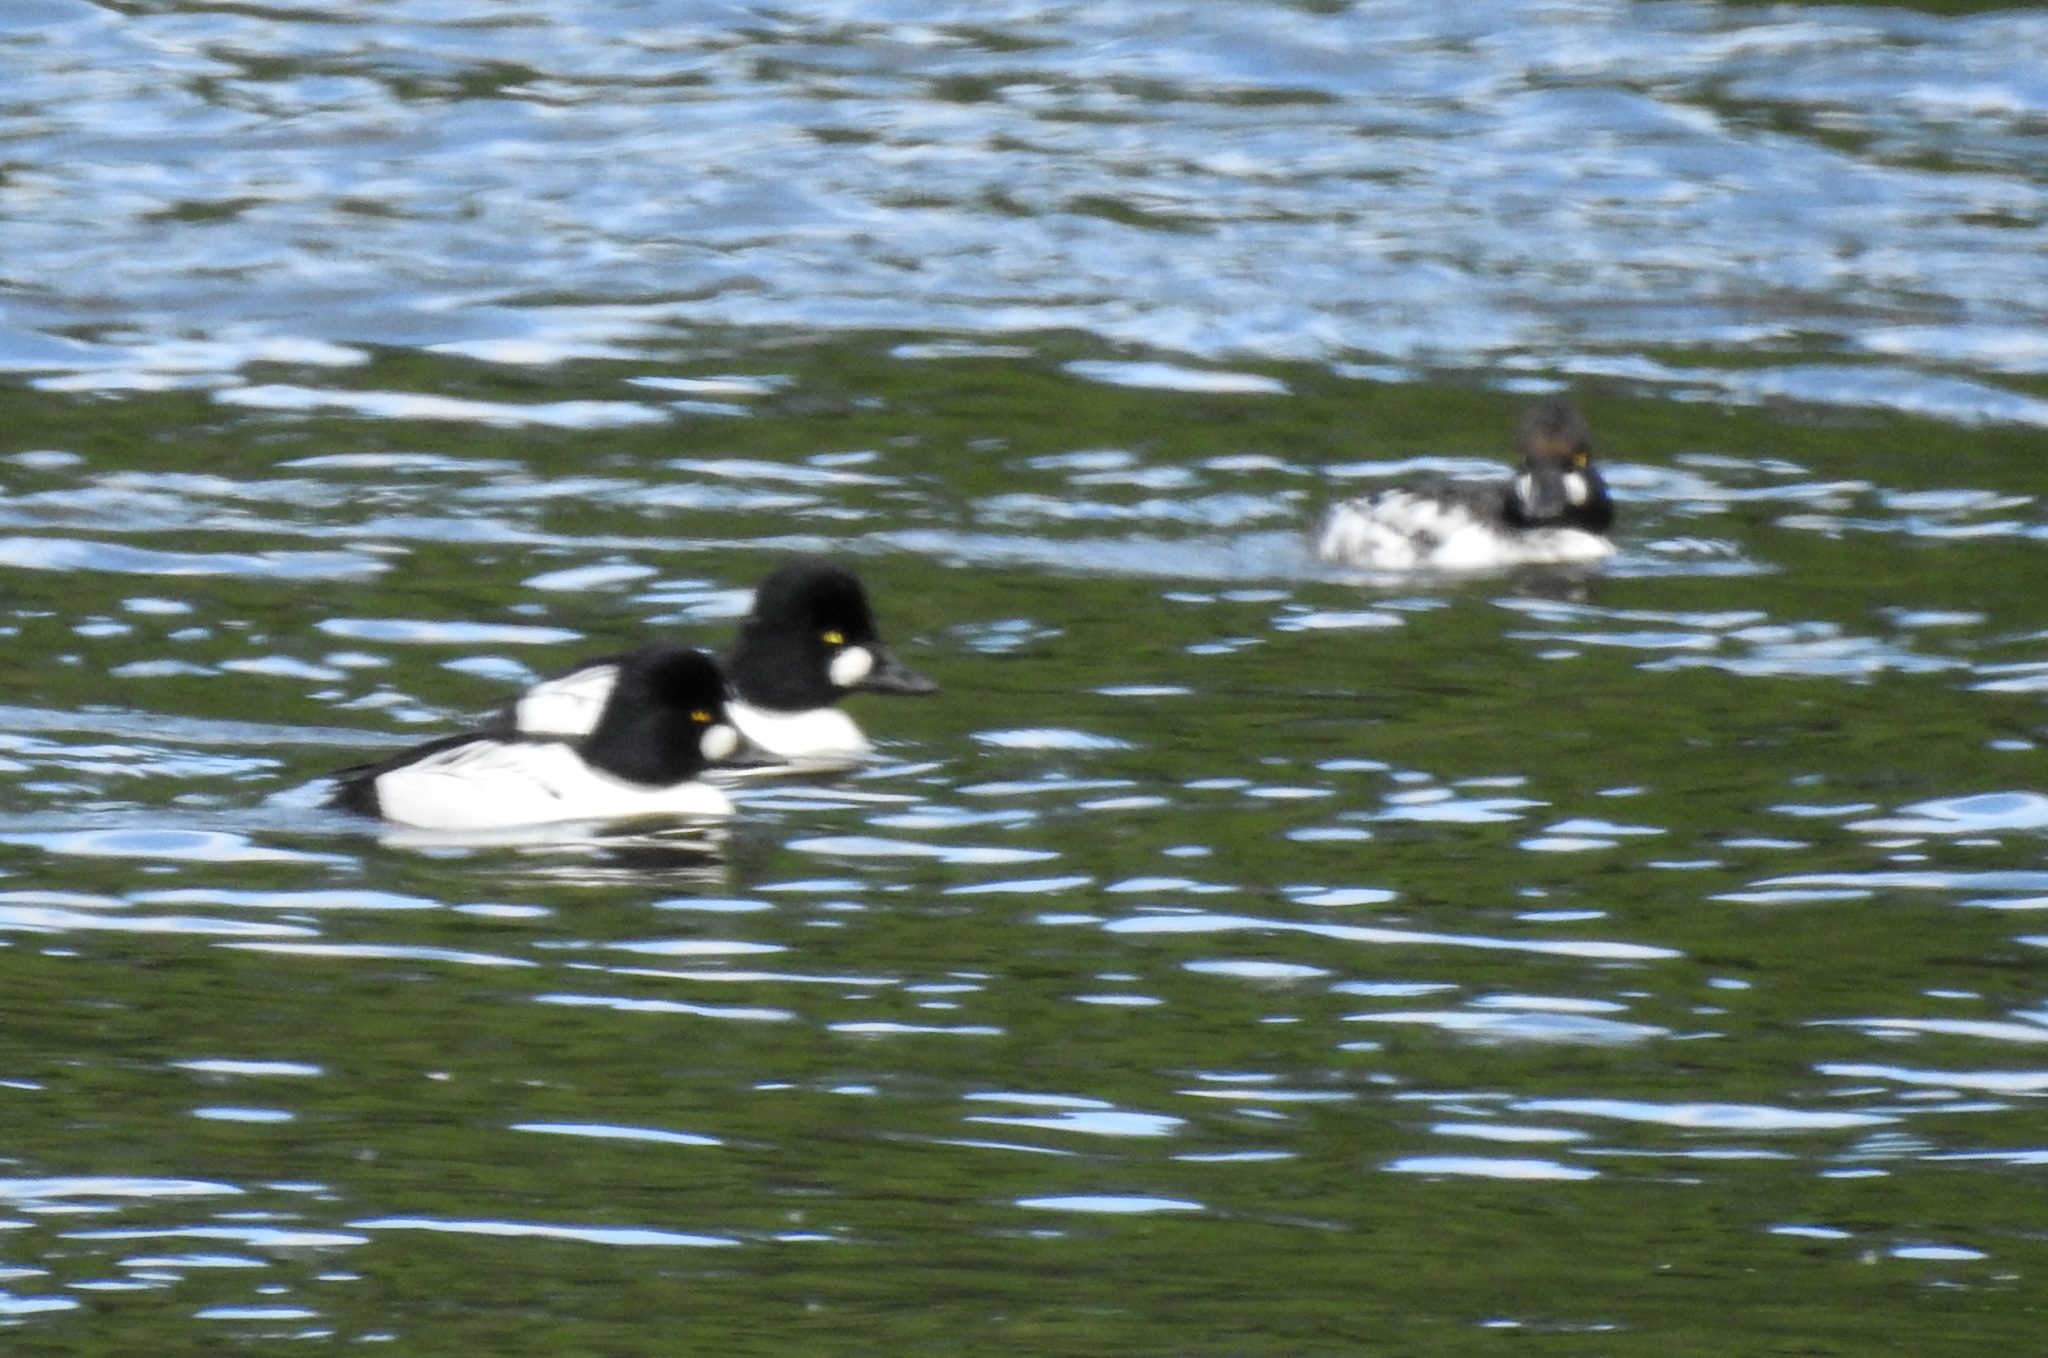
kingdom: Animalia
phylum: Chordata
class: Aves
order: Anseriformes
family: Anatidae
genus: Bucephala
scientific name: Bucephala clangula
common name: Common goldeneye
